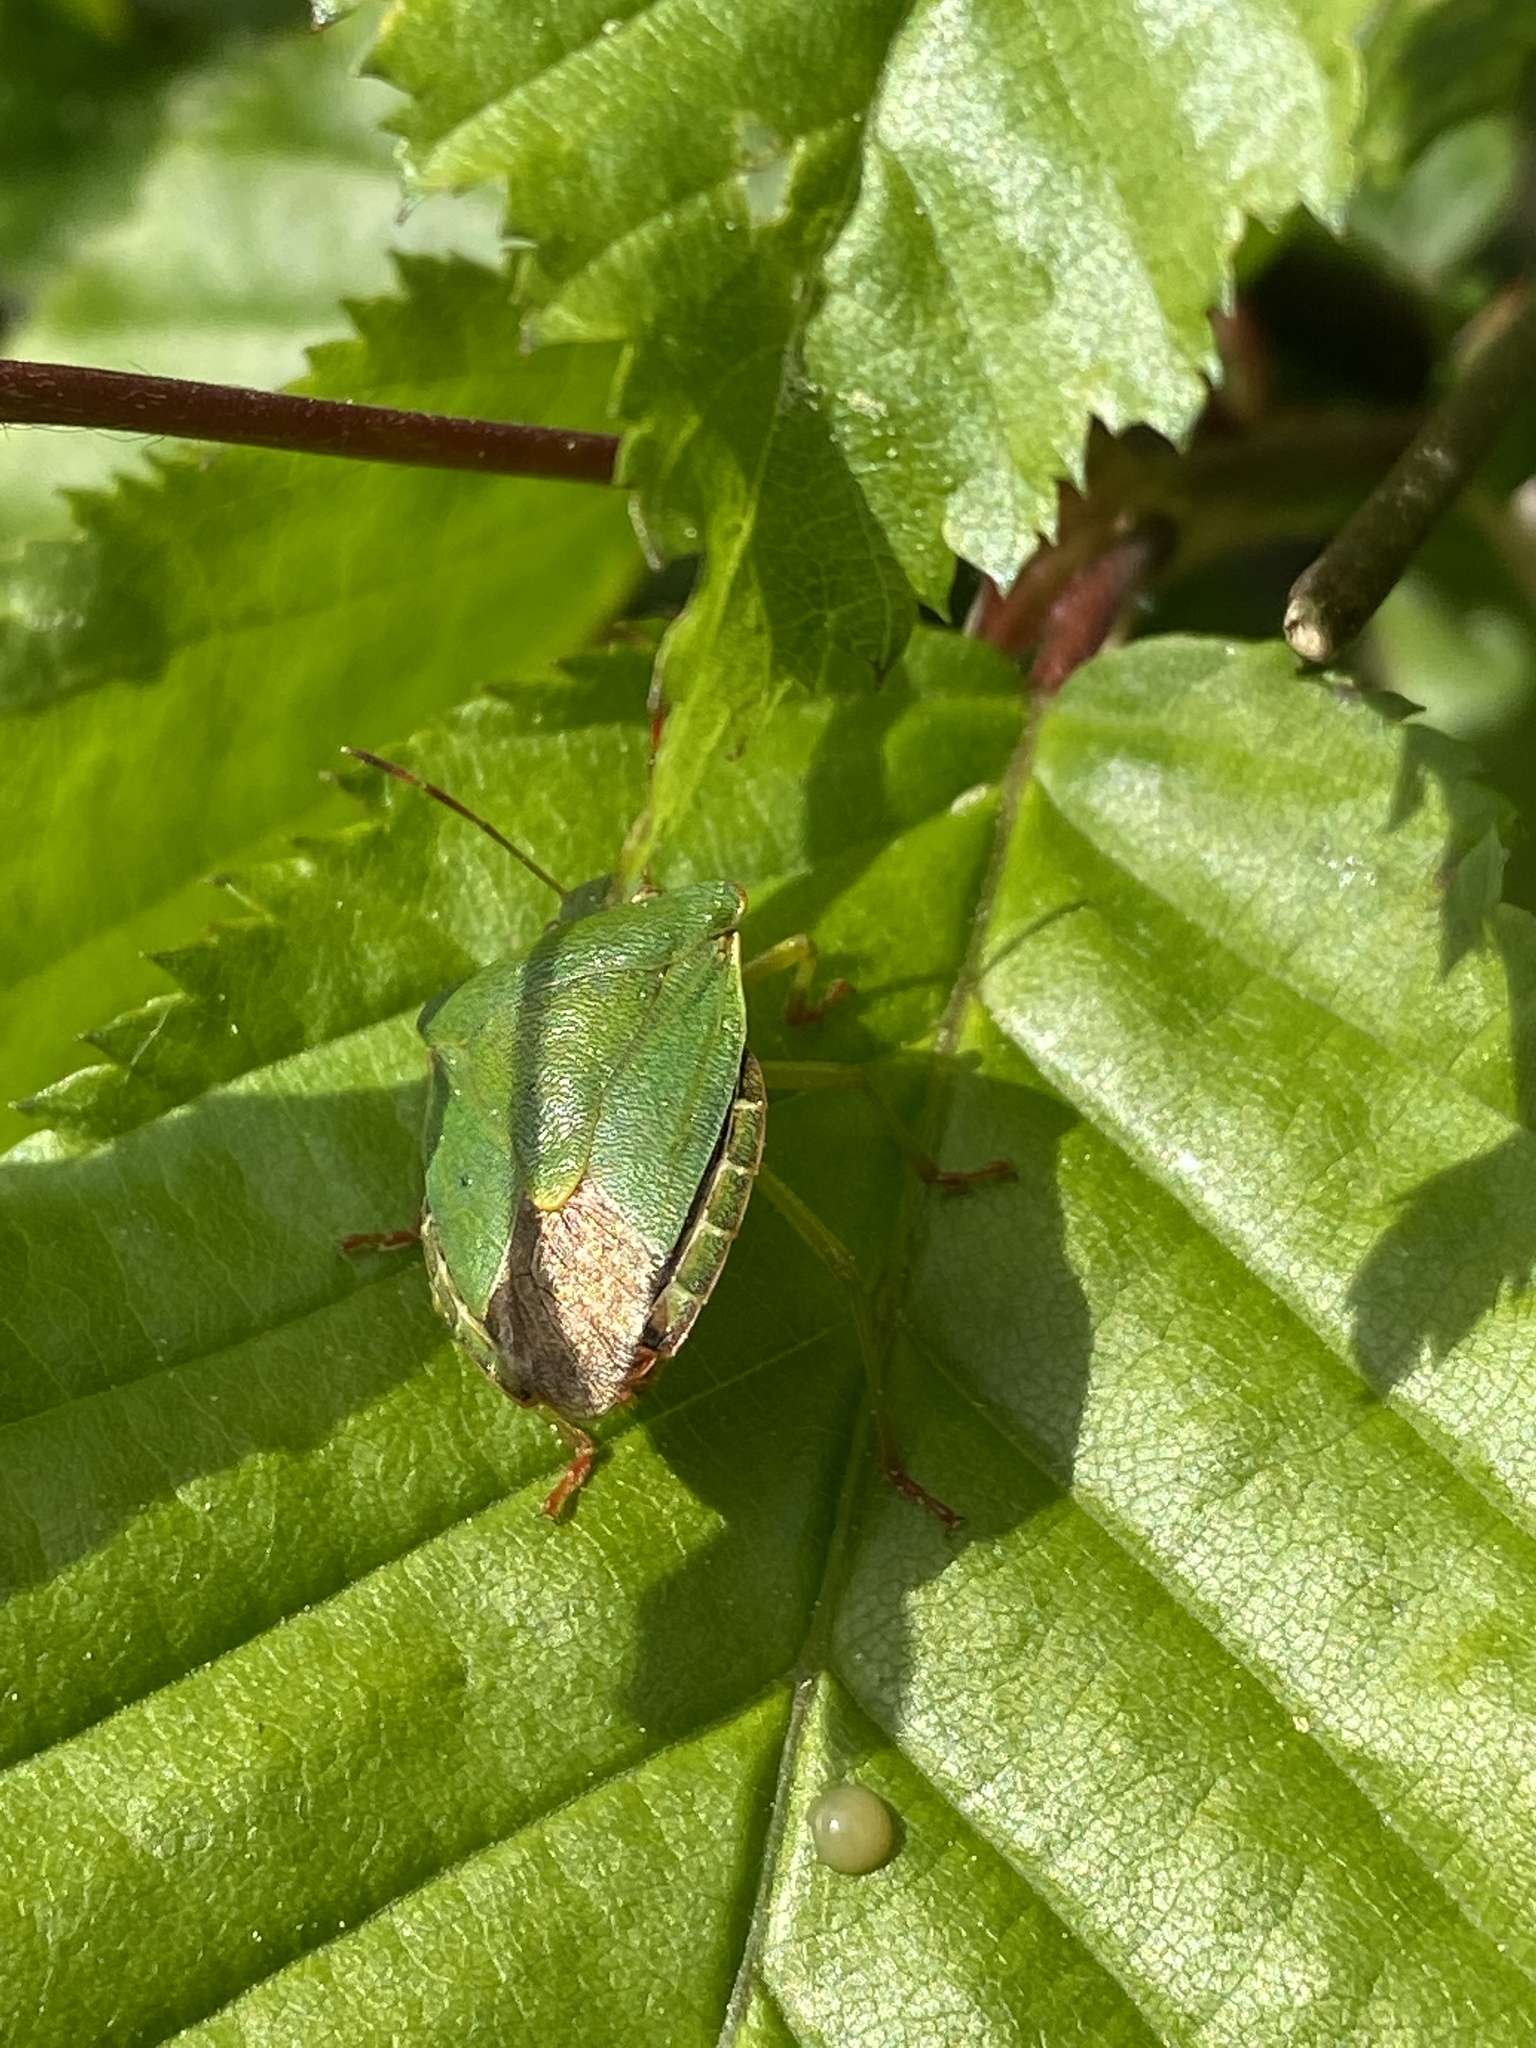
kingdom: Animalia
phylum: Arthropoda
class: Insecta
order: Hemiptera
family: Pentatomidae
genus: Palomena
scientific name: Palomena prasina
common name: Green shieldbug
